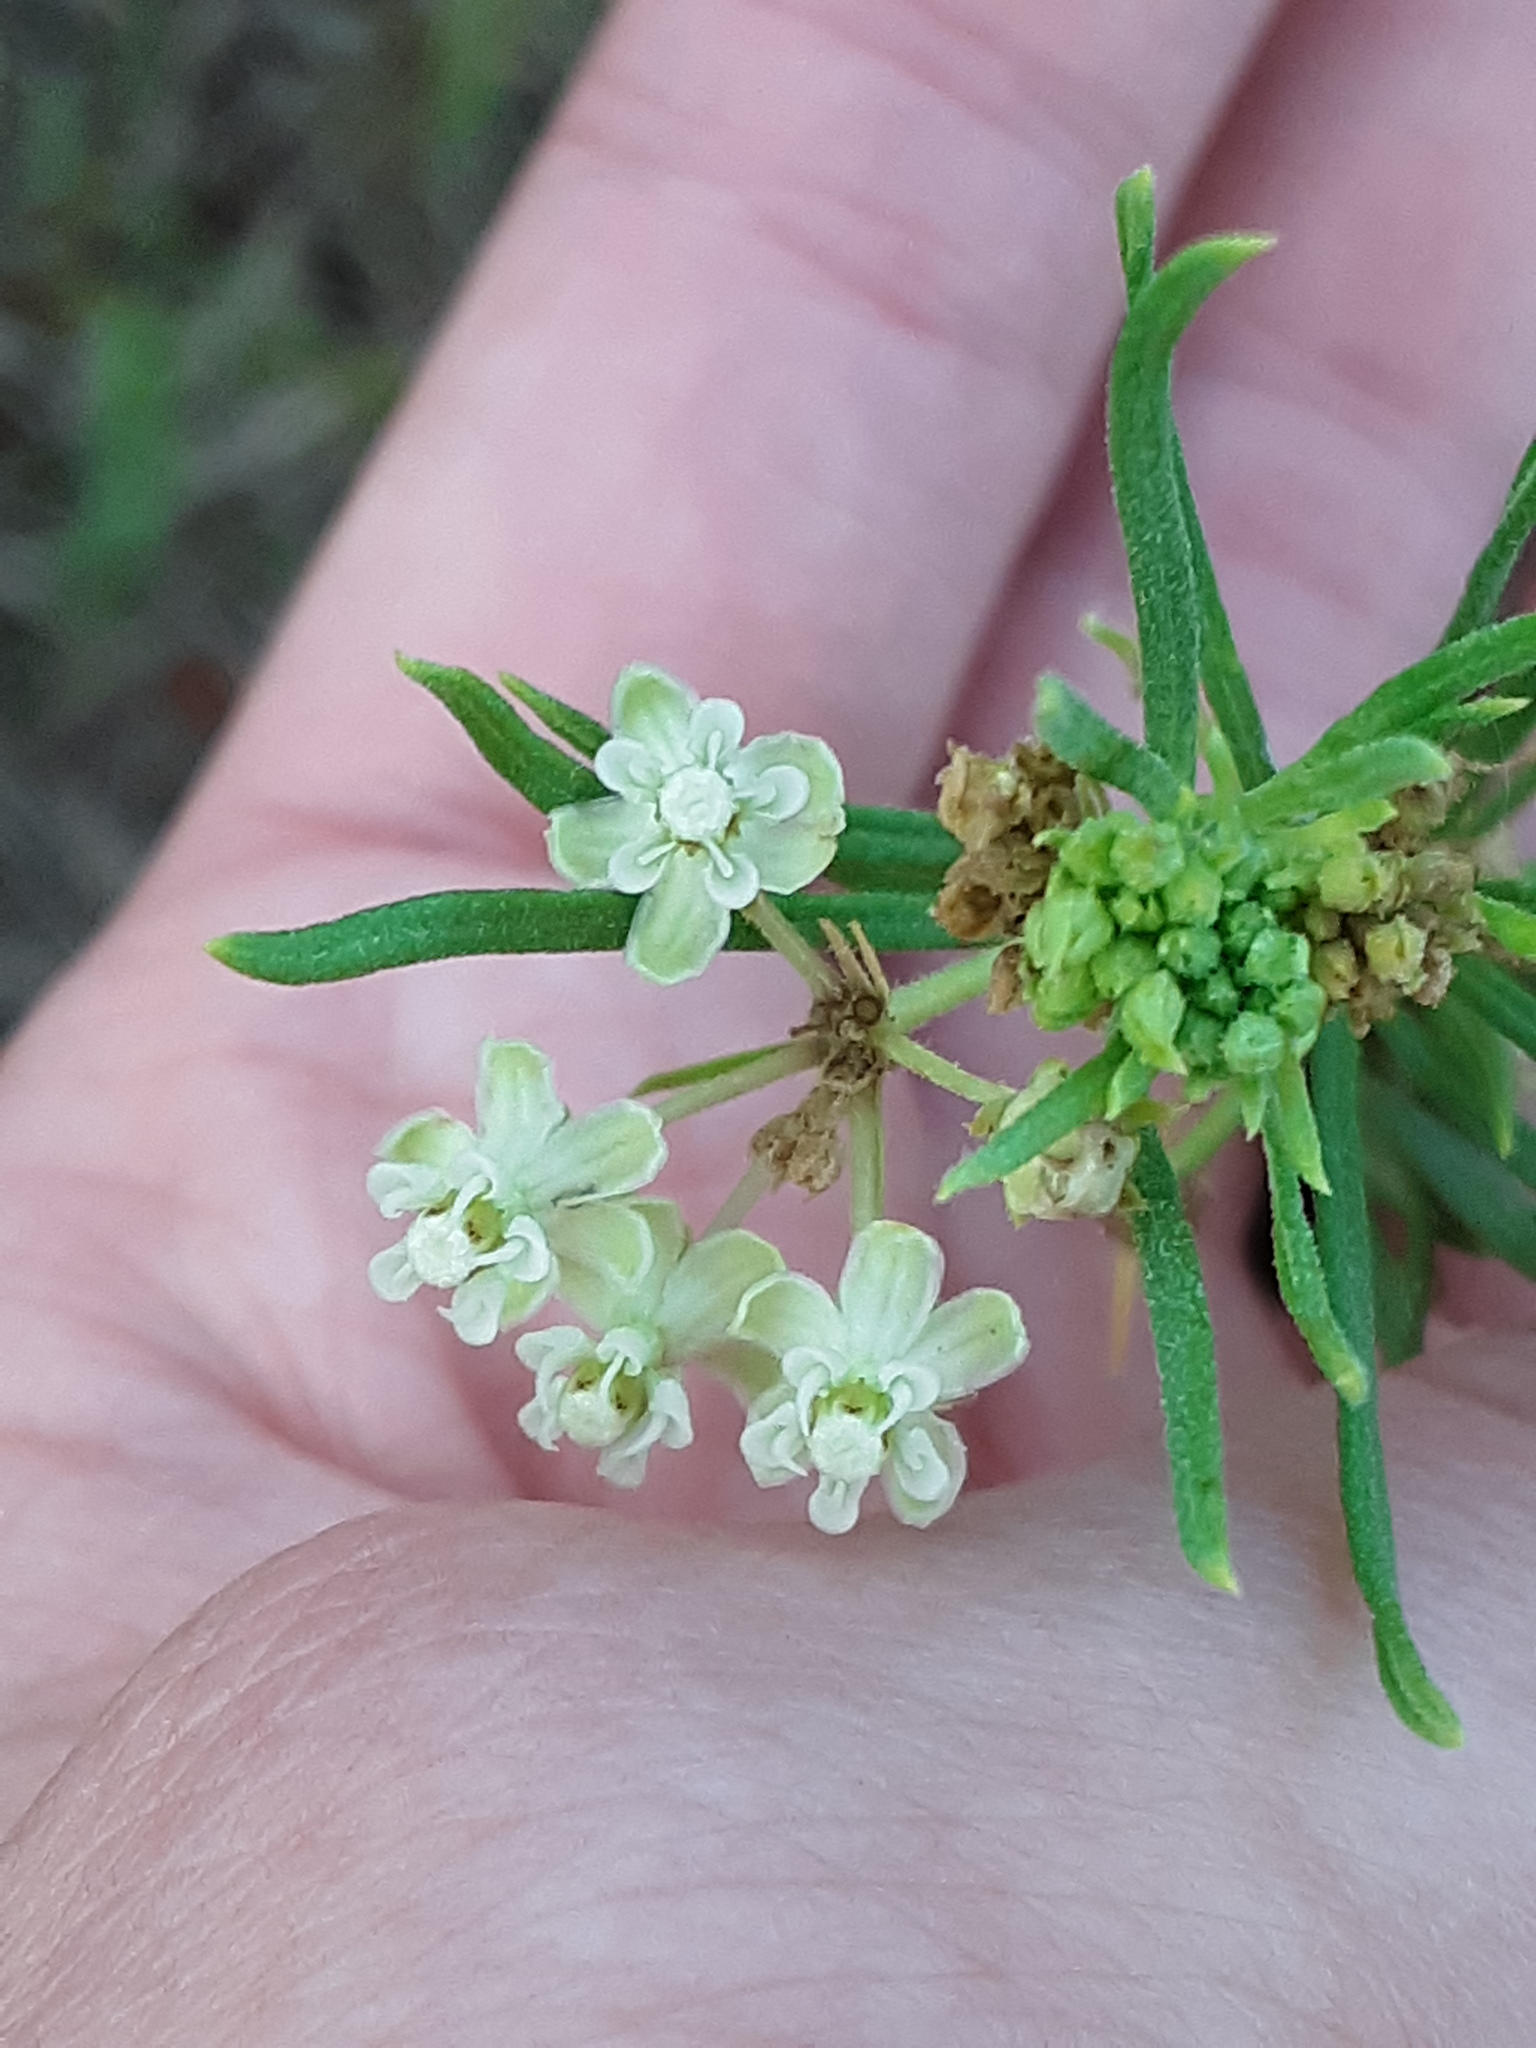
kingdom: Plantae
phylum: Tracheophyta
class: Magnoliopsida
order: Gentianales
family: Apocynaceae
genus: Asclepias
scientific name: Asclepias verticillata
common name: Eastern whorled milkweed
